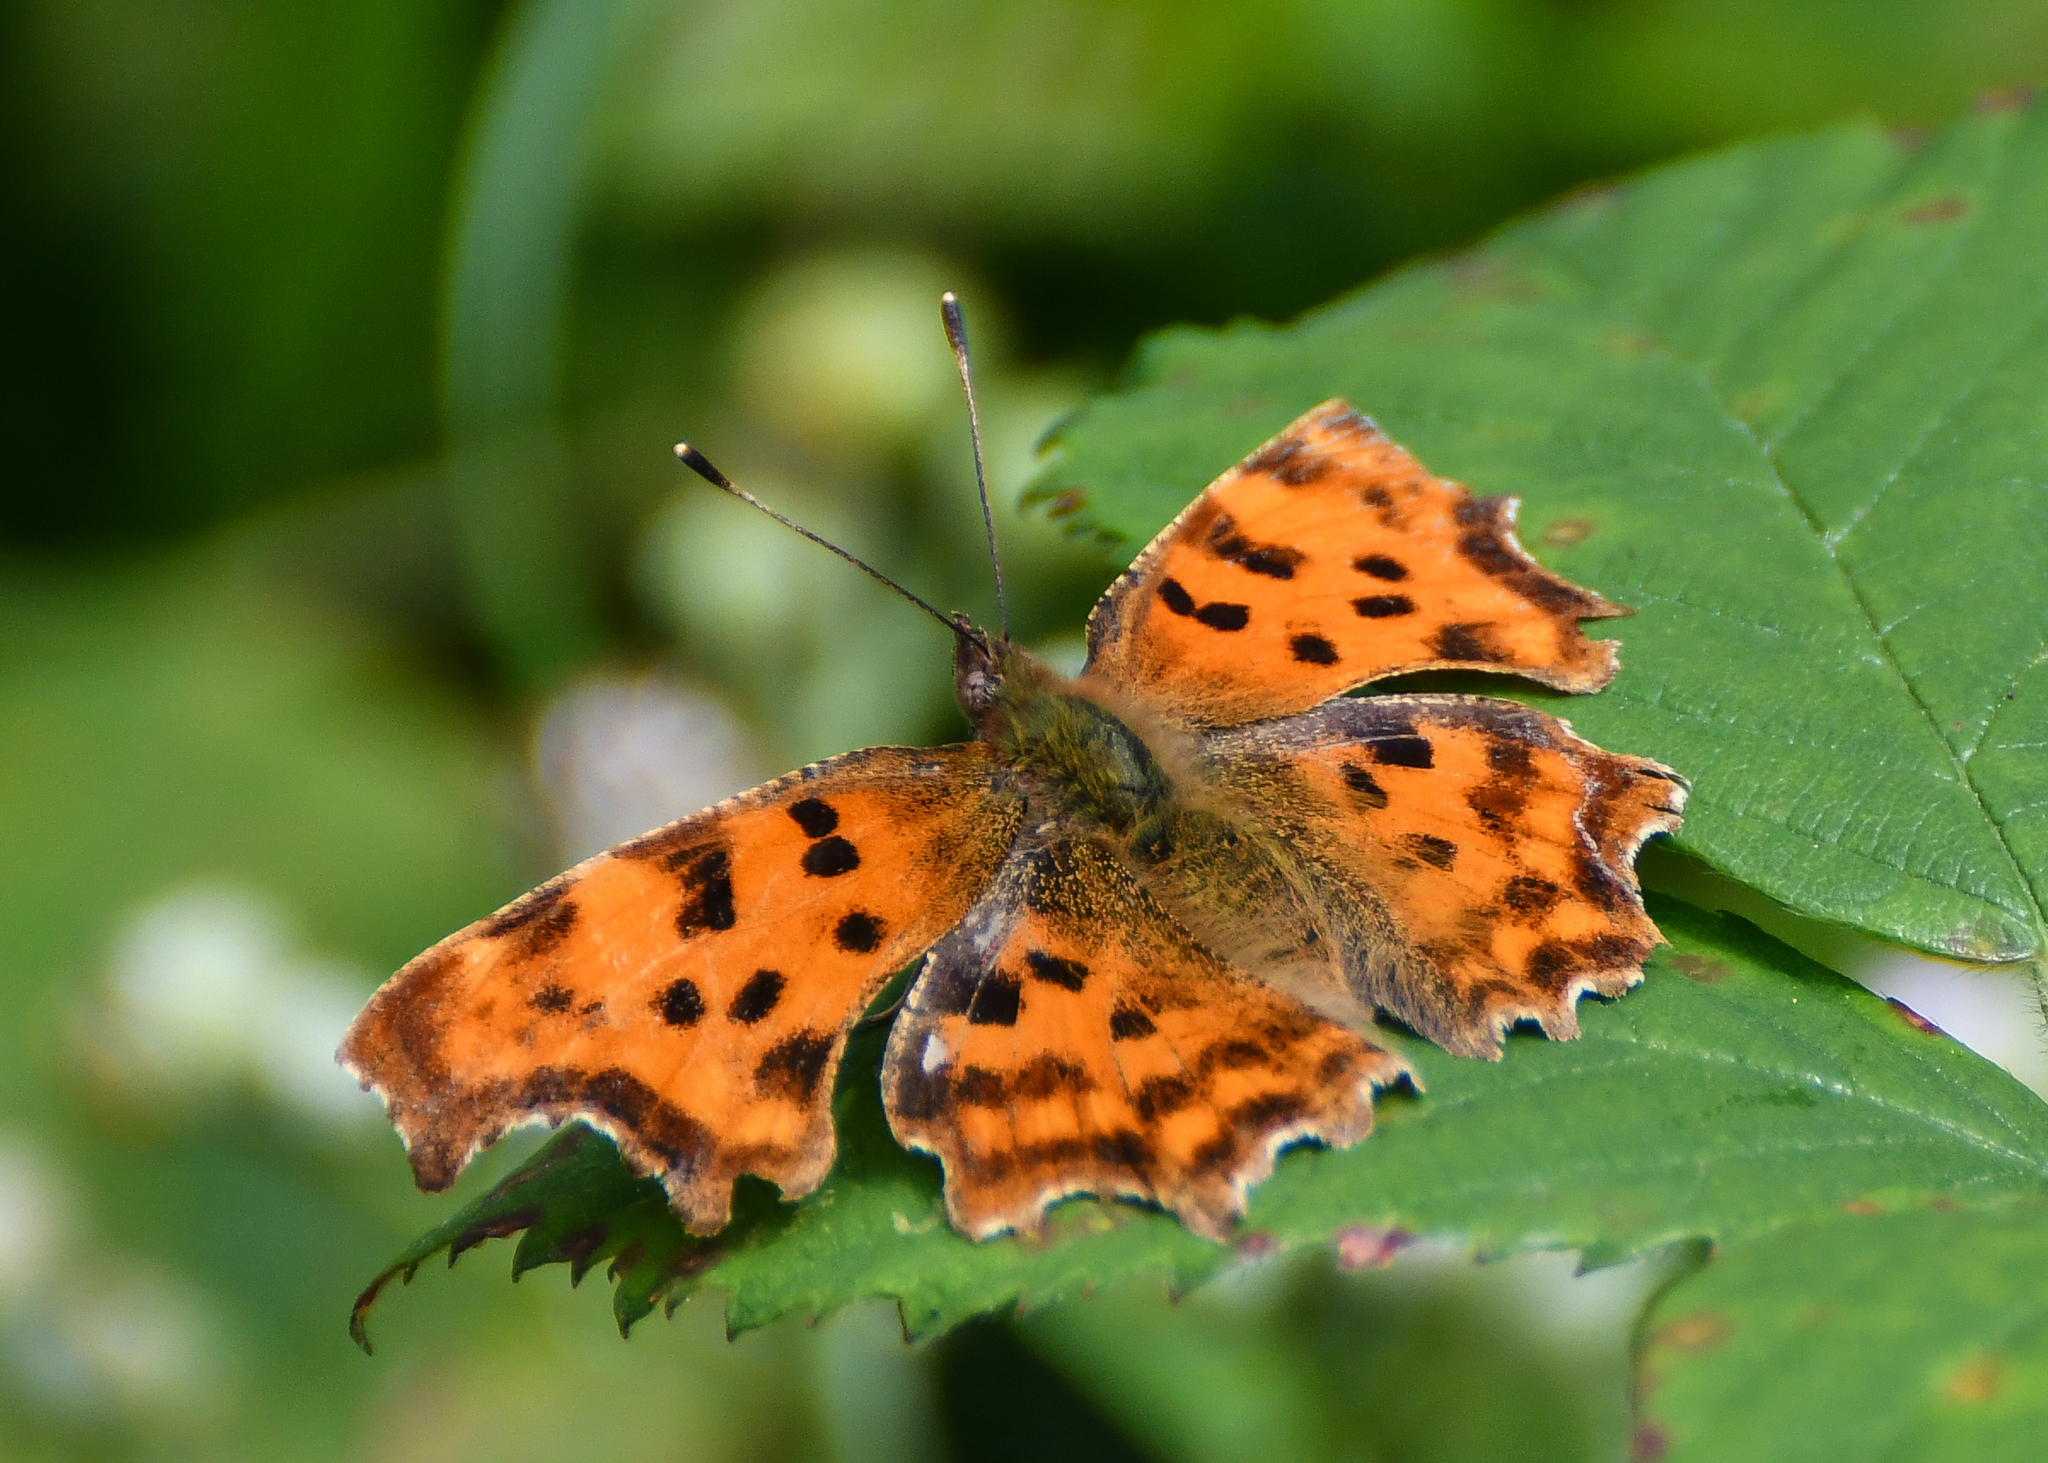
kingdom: Animalia
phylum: Arthropoda
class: Insecta
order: Lepidoptera
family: Nymphalidae
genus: Polygonia
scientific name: Polygonia c-album
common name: Comma
